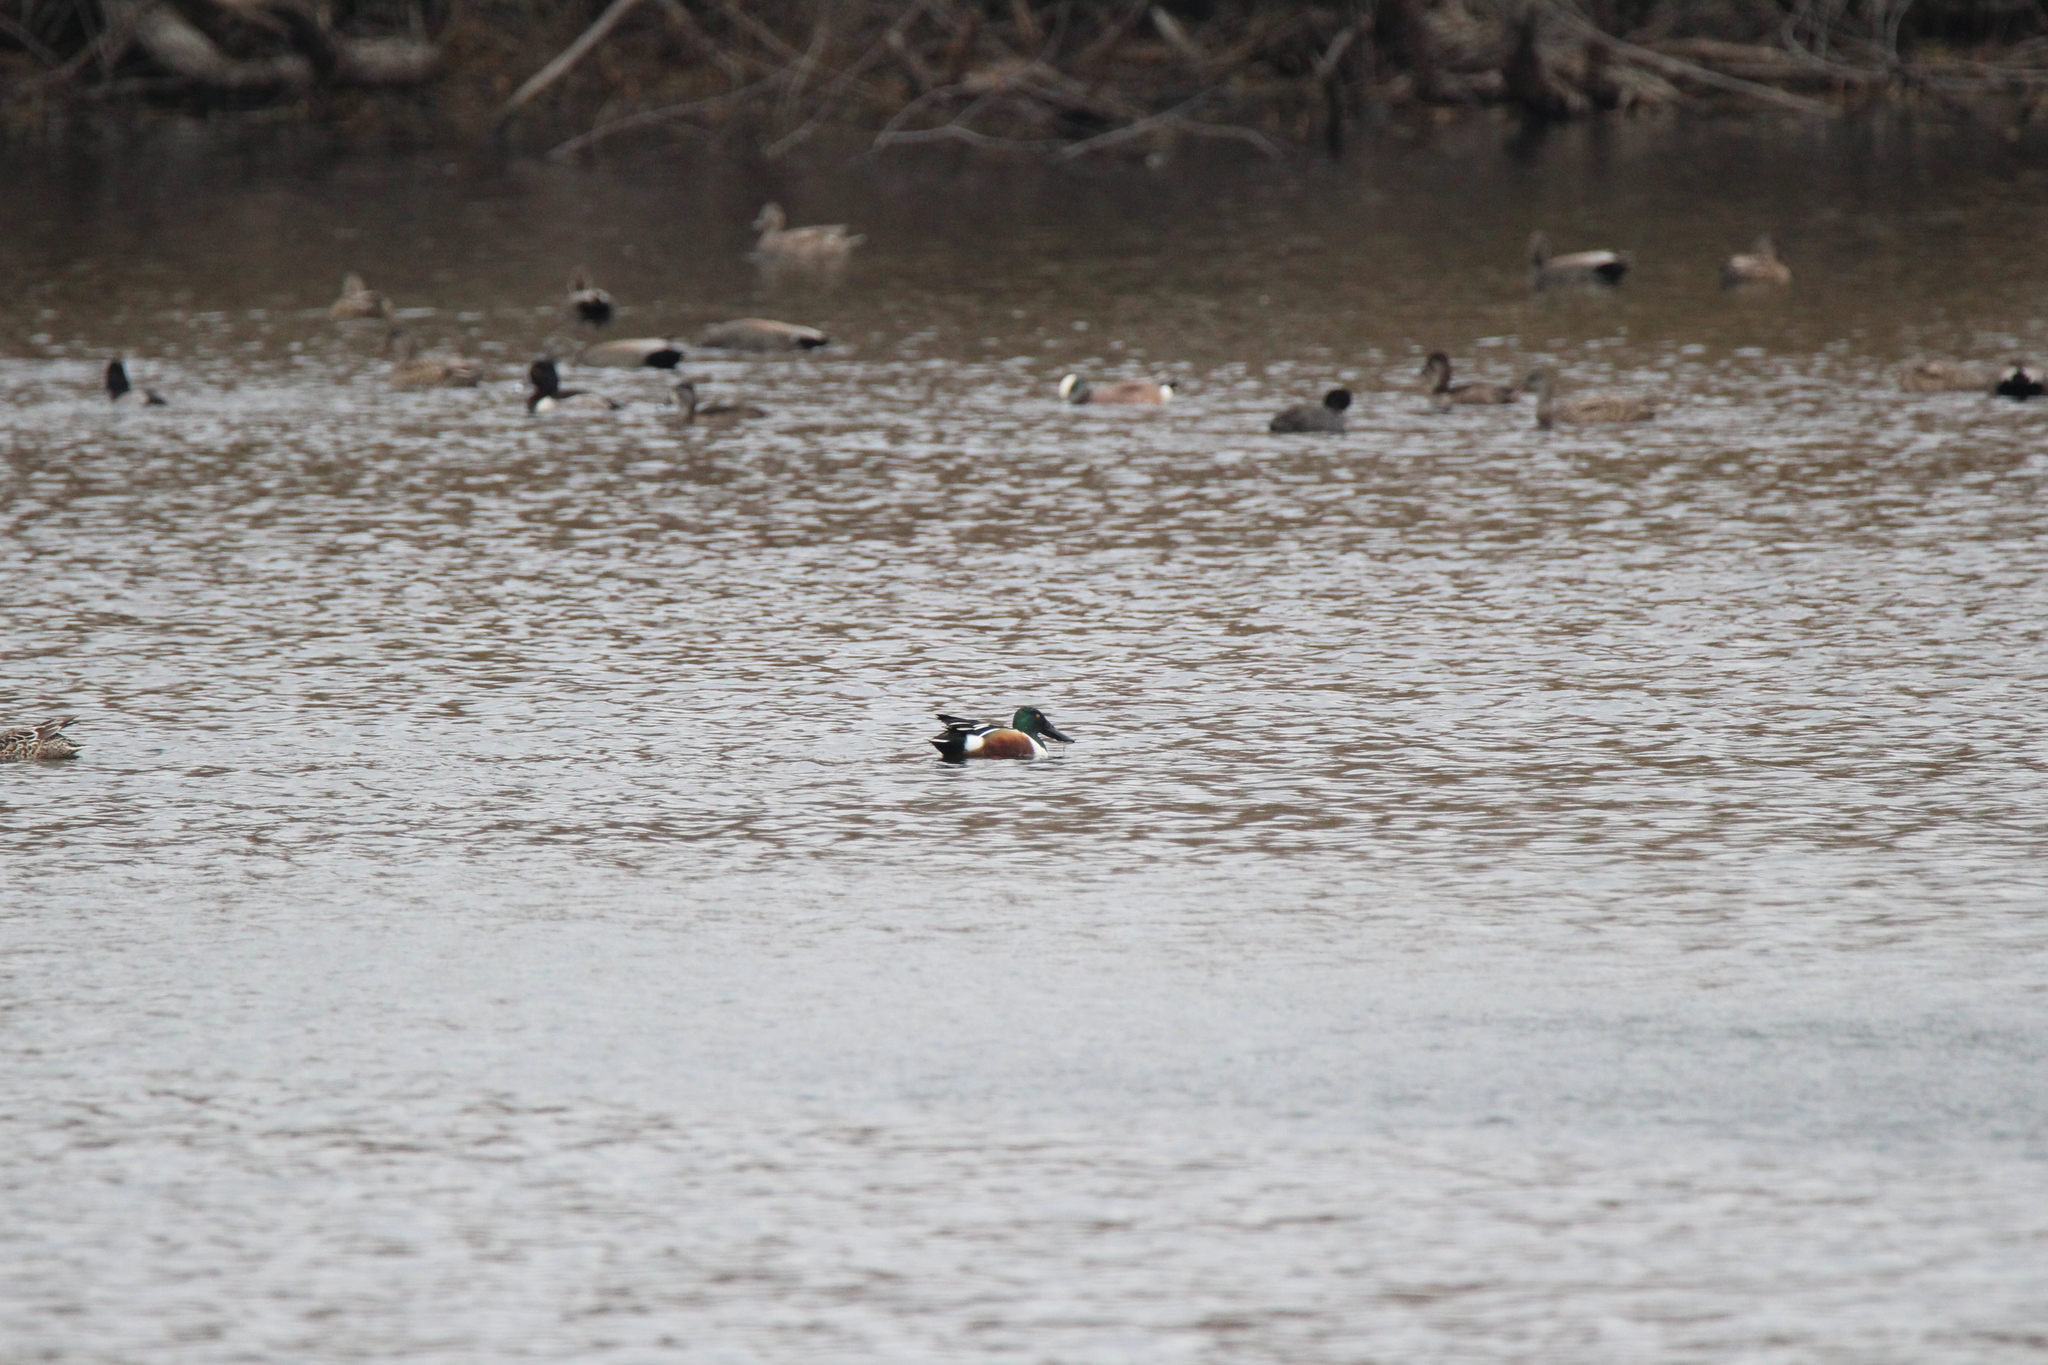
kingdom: Animalia
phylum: Chordata
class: Aves
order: Anseriformes
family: Anatidae
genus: Spatula
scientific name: Spatula clypeata
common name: Northern shoveler
